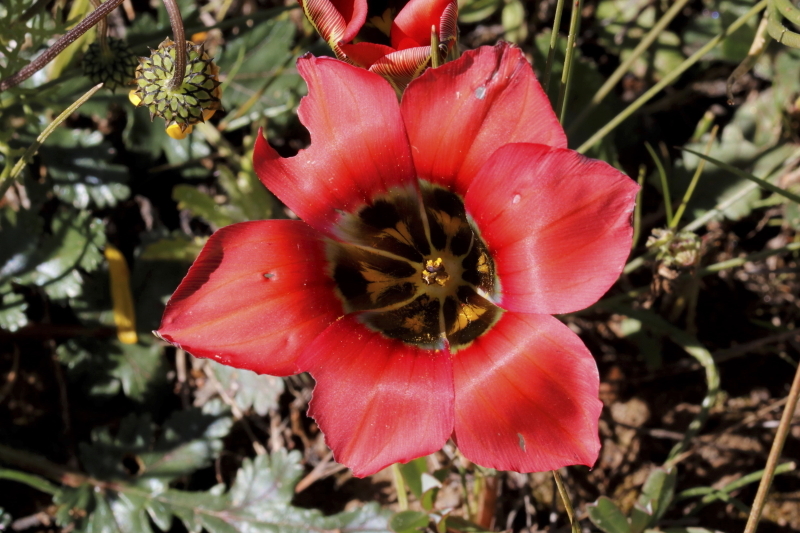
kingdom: Plantae
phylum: Tracheophyta
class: Liliopsida
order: Asparagales
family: Iridaceae
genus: Romulea
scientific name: Romulea sabulosa
